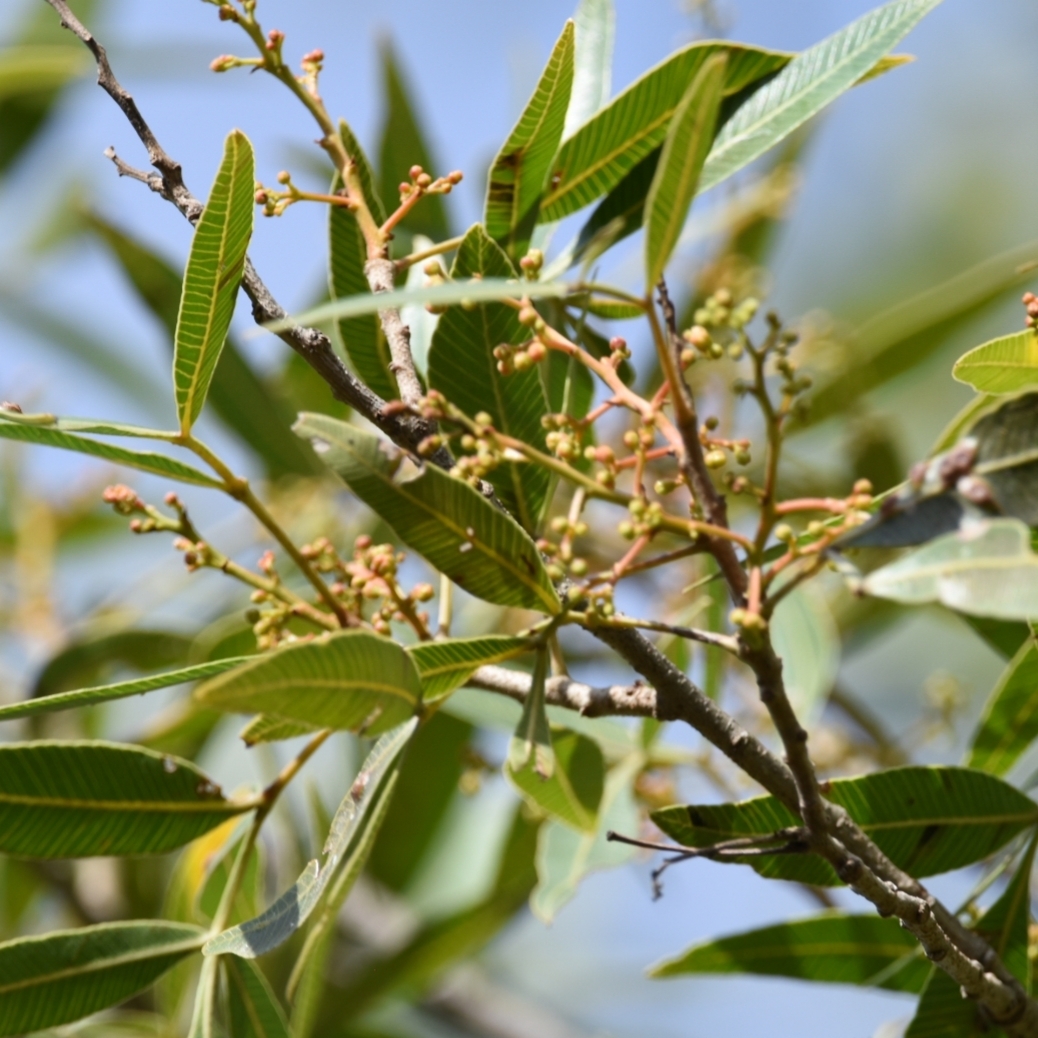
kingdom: Plantae
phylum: Tracheophyta
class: Magnoliopsida
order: Sapindales
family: Anacardiaceae
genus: Lithraea
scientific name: Lithraea molleoides
